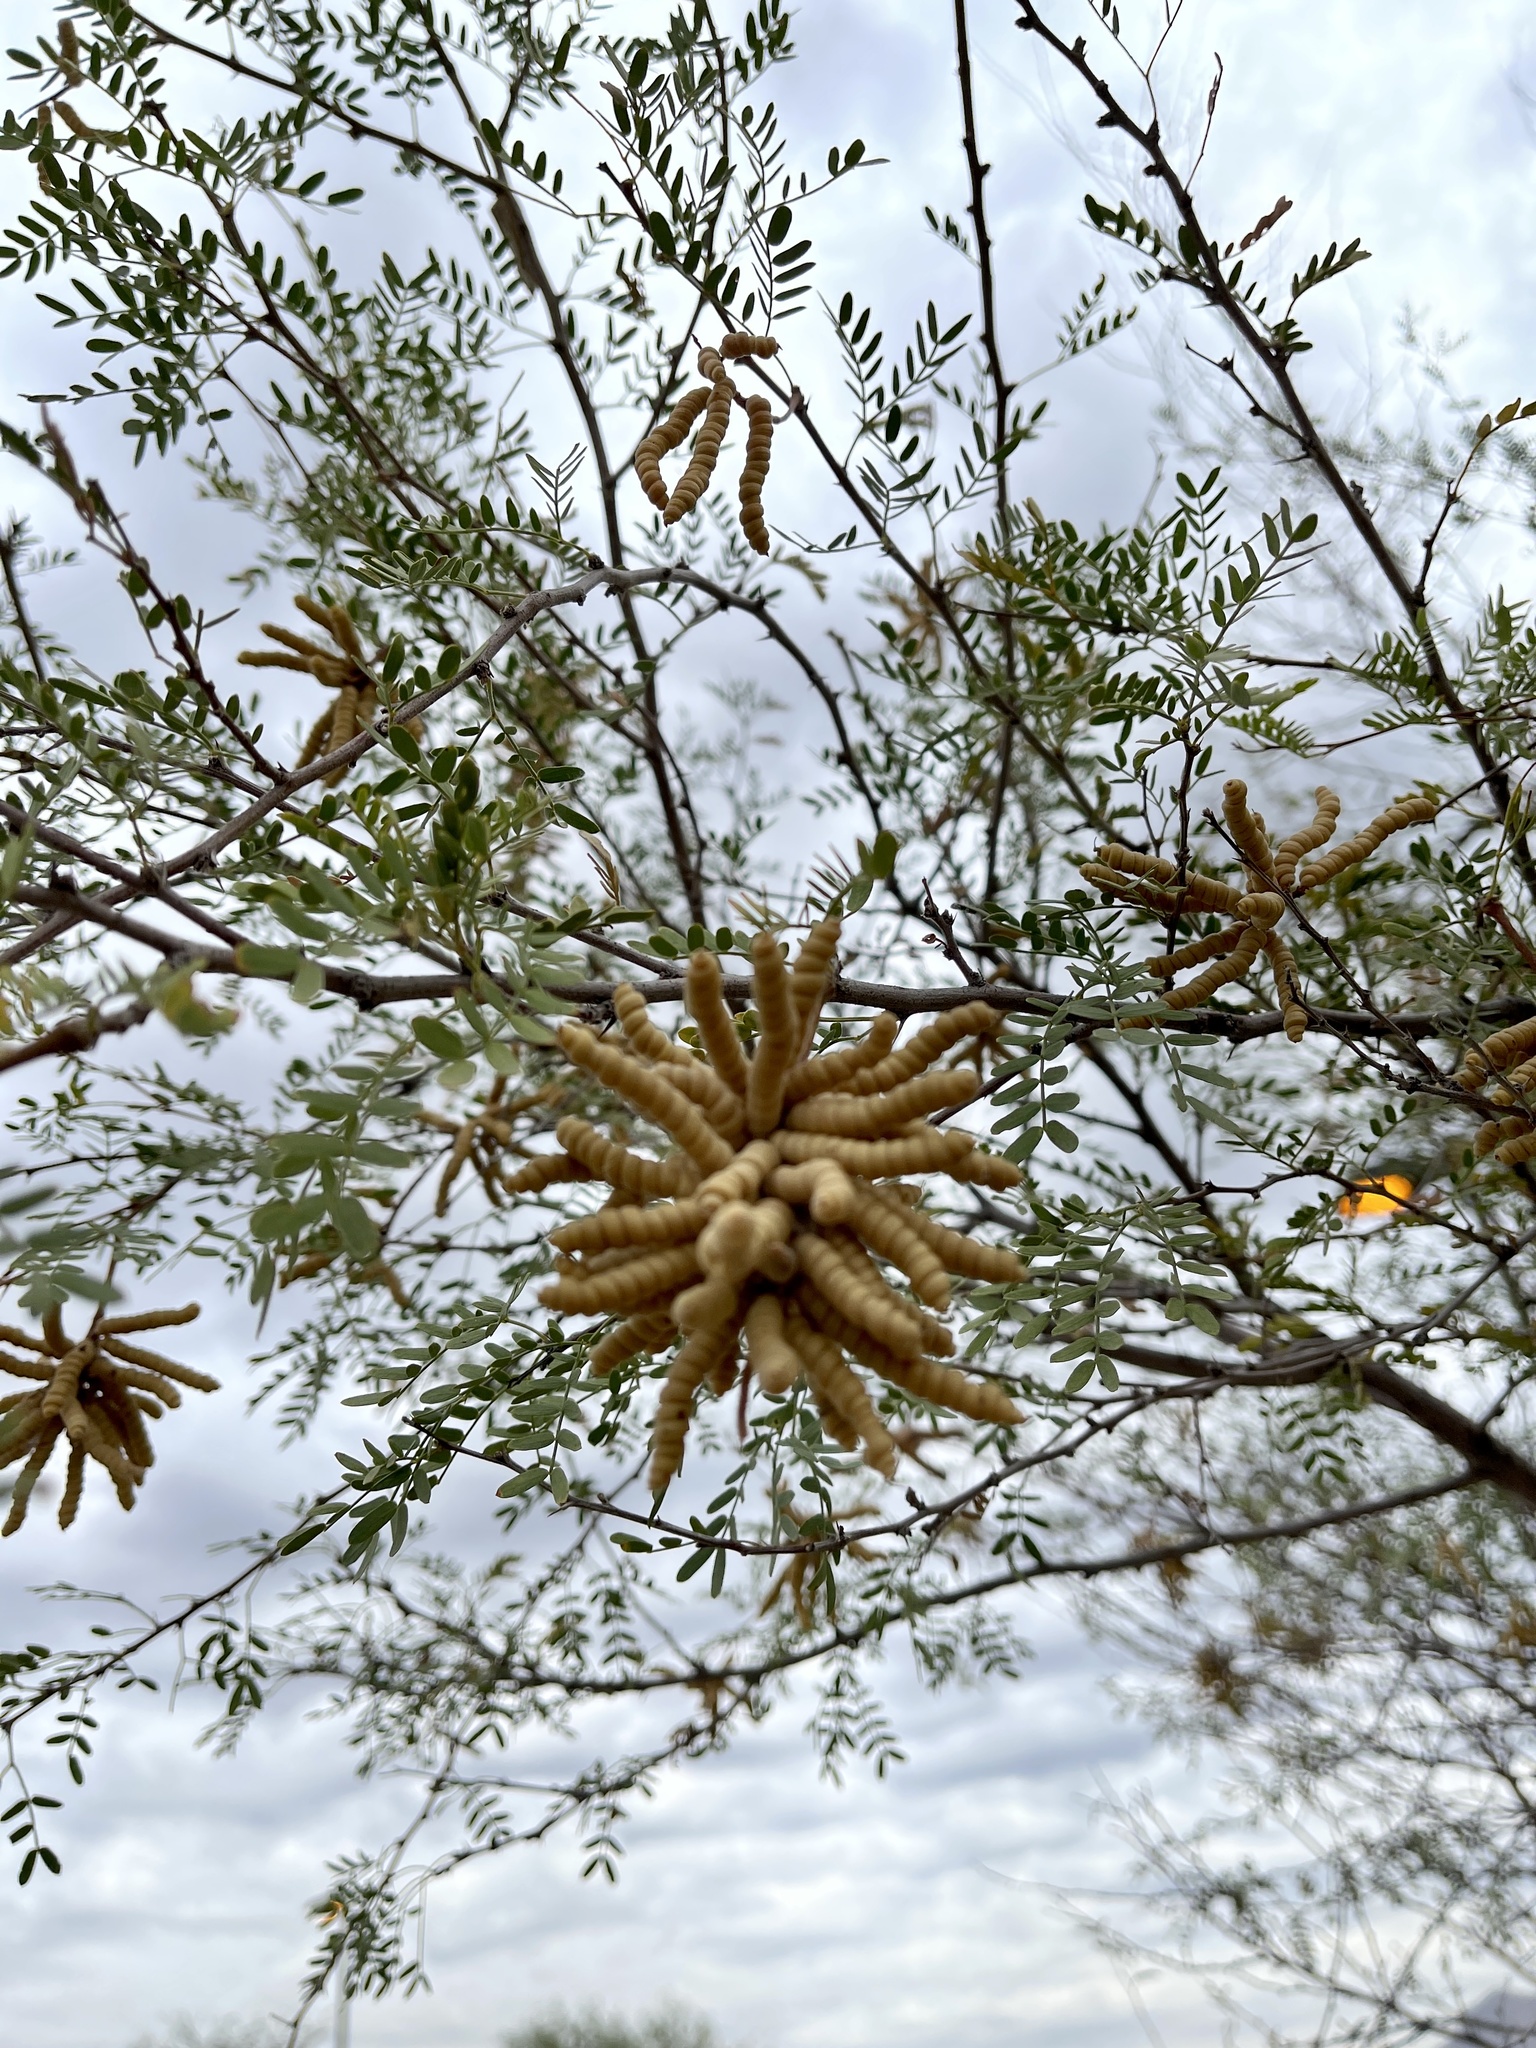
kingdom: Plantae
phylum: Tracheophyta
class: Magnoliopsida
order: Fabales
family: Fabaceae
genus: Prosopis
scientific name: Prosopis pubescens
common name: Screw-bean
